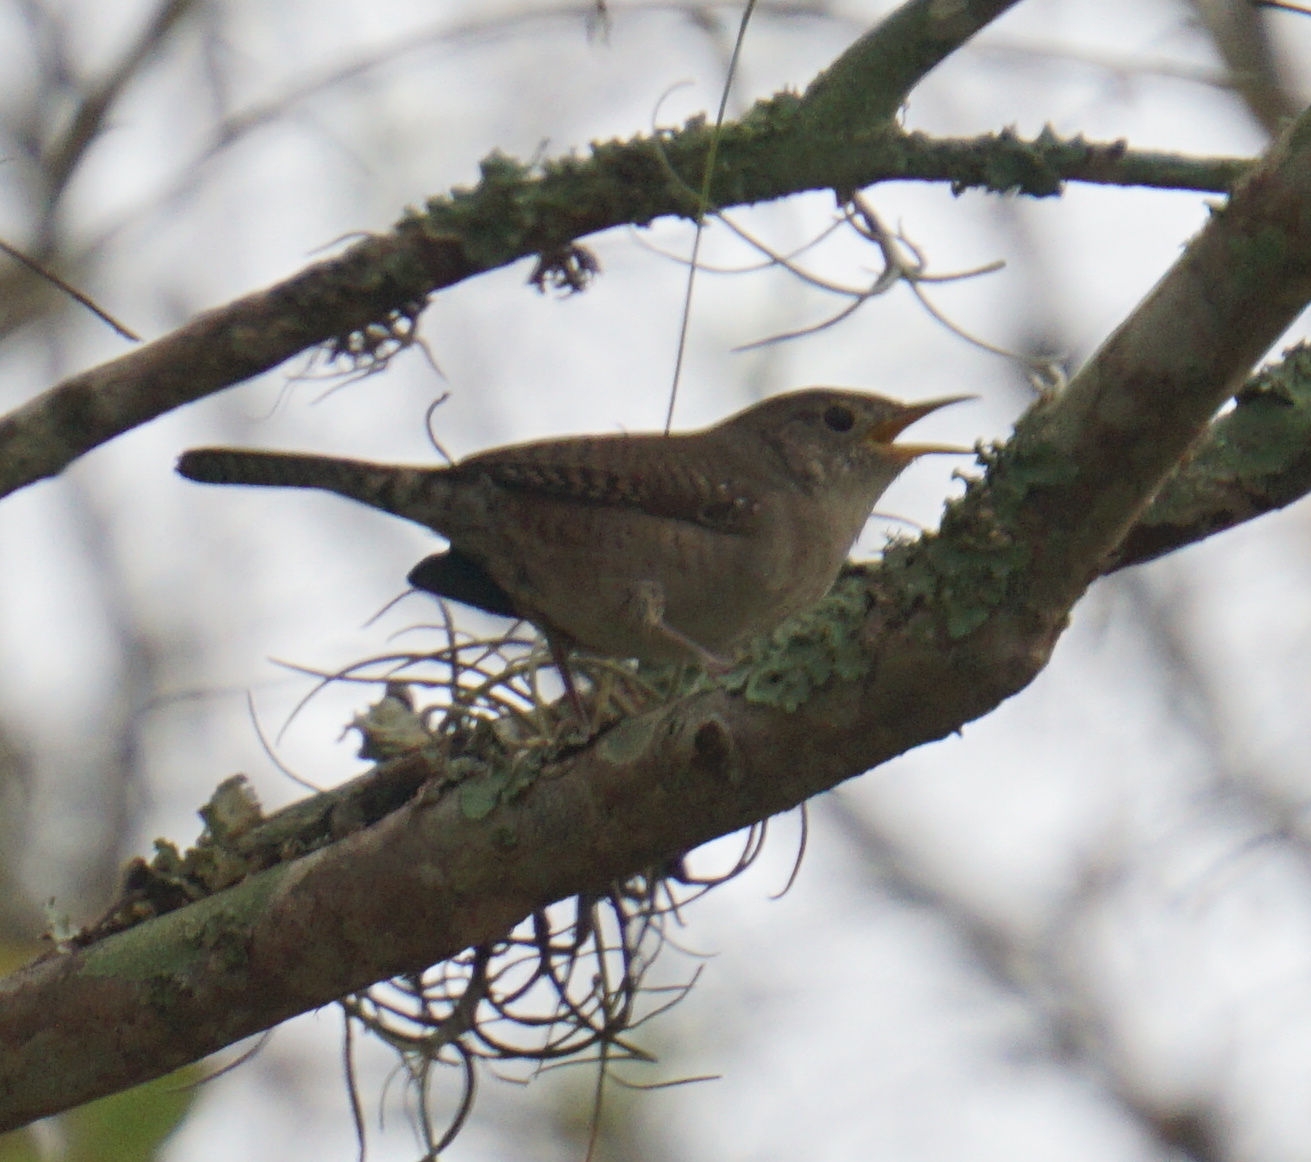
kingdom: Animalia
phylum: Chordata
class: Aves
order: Passeriformes
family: Troglodytidae
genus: Troglodytes
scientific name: Troglodytes aedon
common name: House wren
